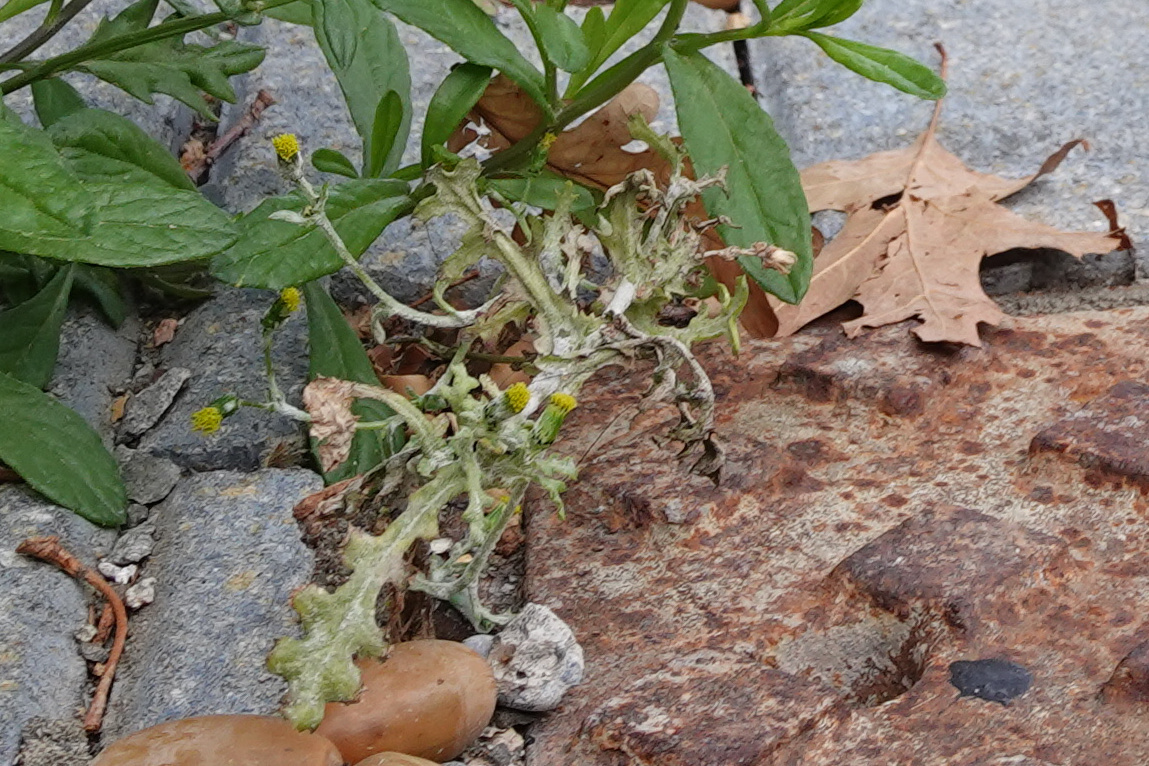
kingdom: Plantae
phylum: Tracheophyta
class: Magnoliopsida
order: Asterales
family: Asteraceae
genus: Senecio
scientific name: Senecio vulgaris
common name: Old-man-in-the-spring
